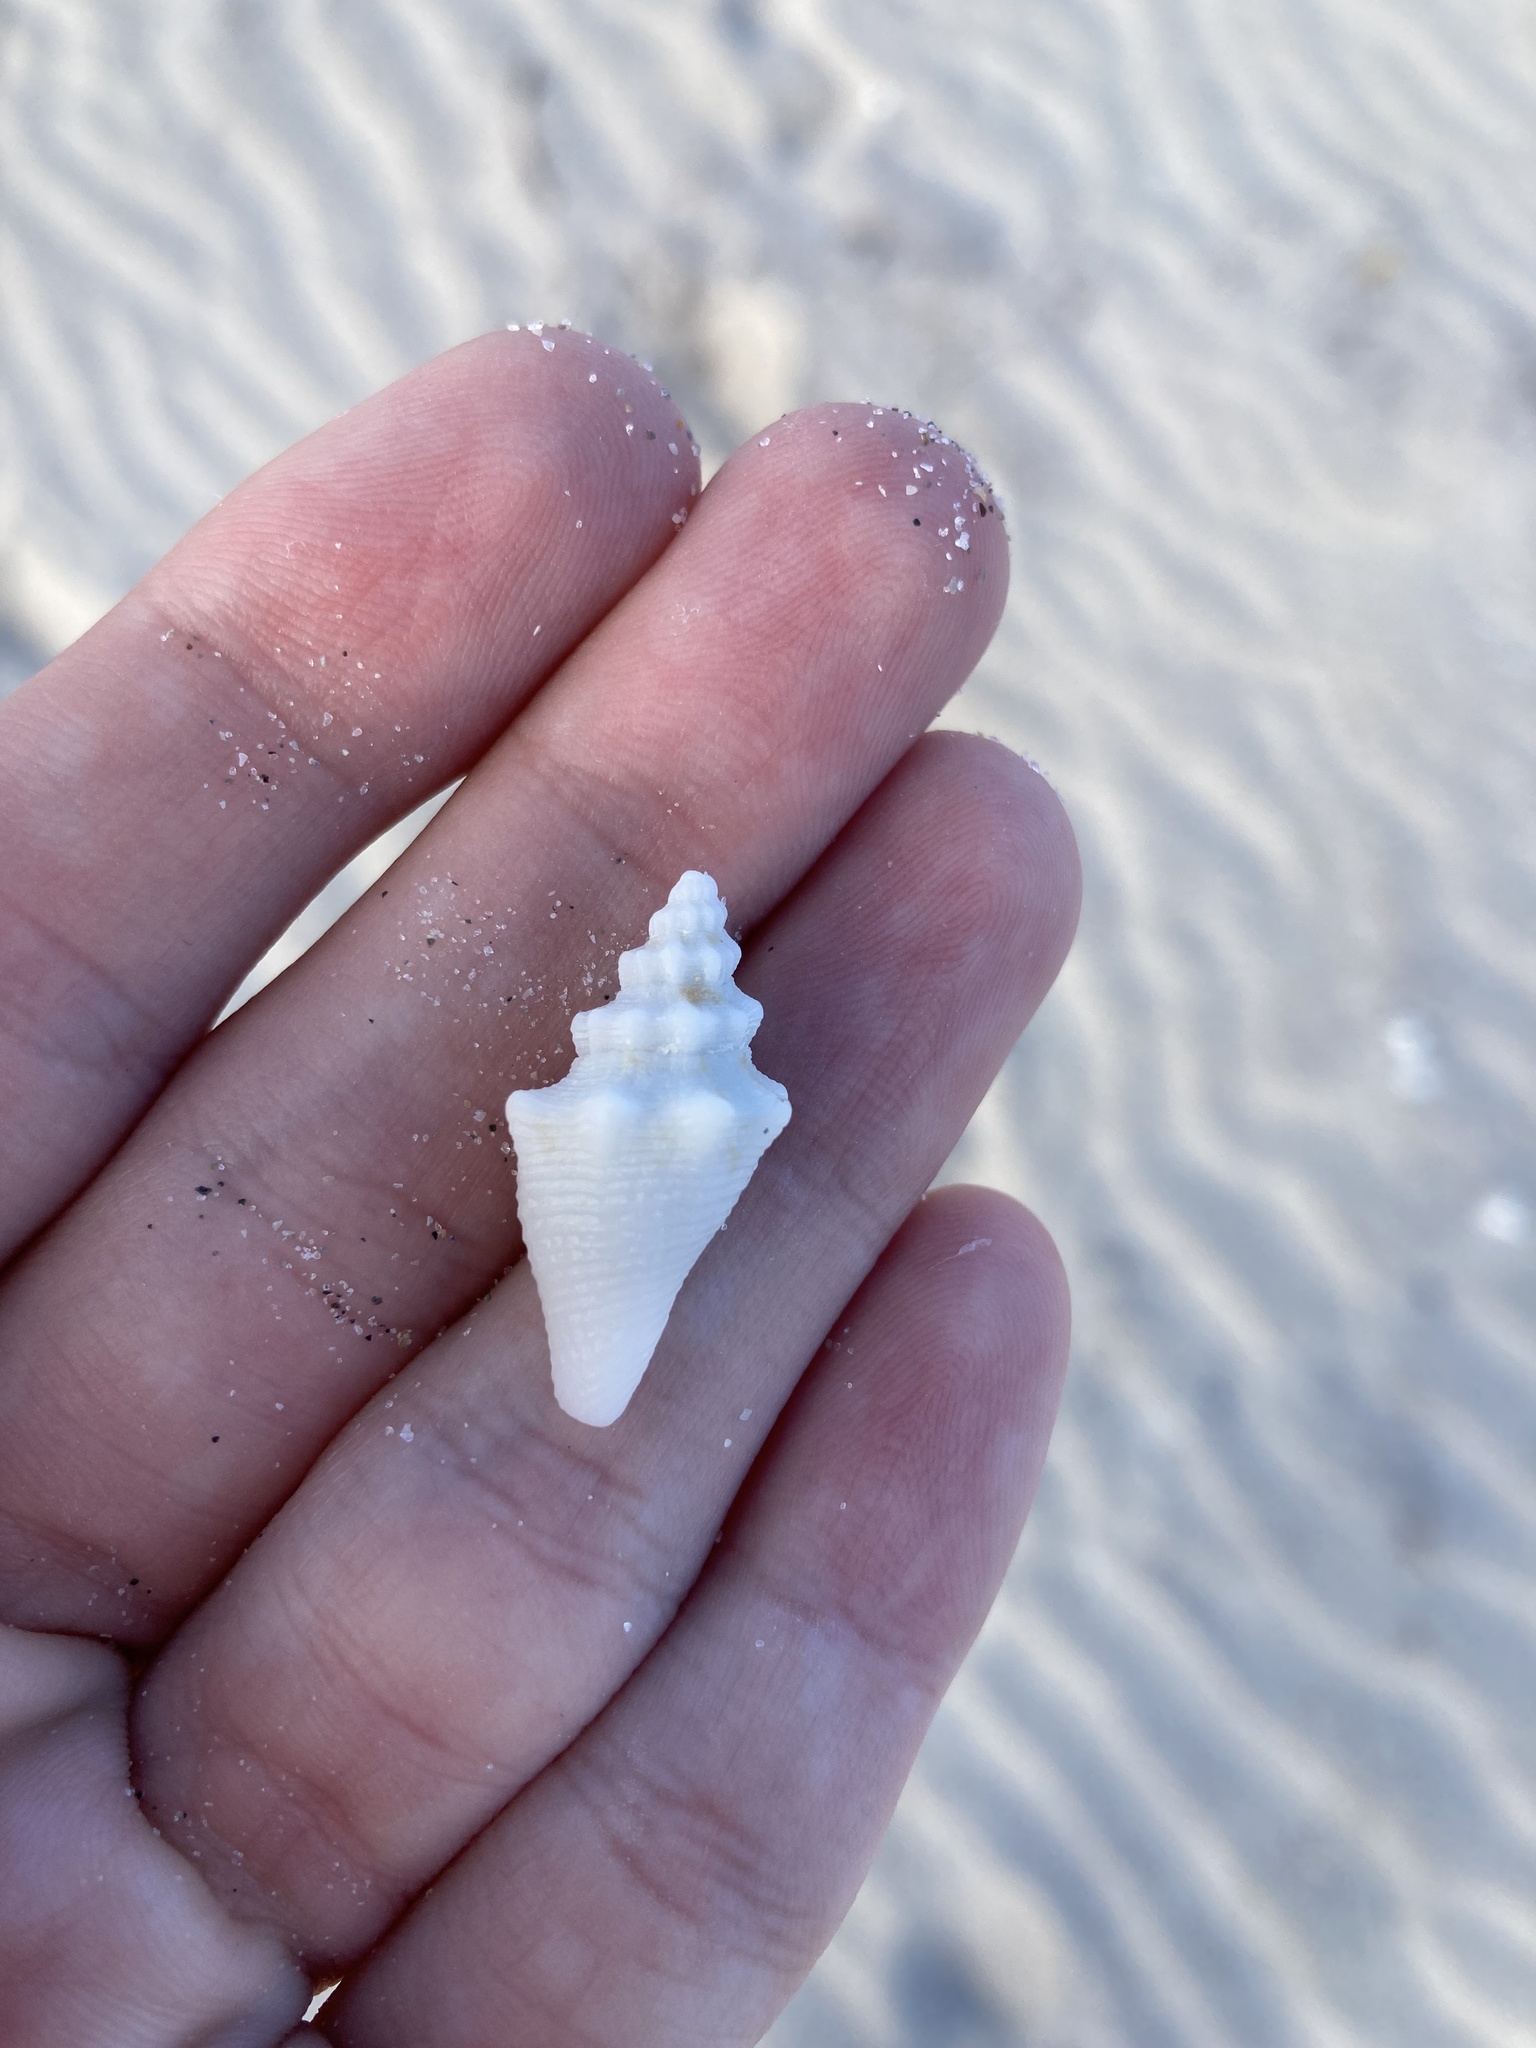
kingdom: Animalia
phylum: Mollusca
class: Gastropoda
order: Littorinimorpha
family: Strombidae
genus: Aliger
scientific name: Aliger gigas
